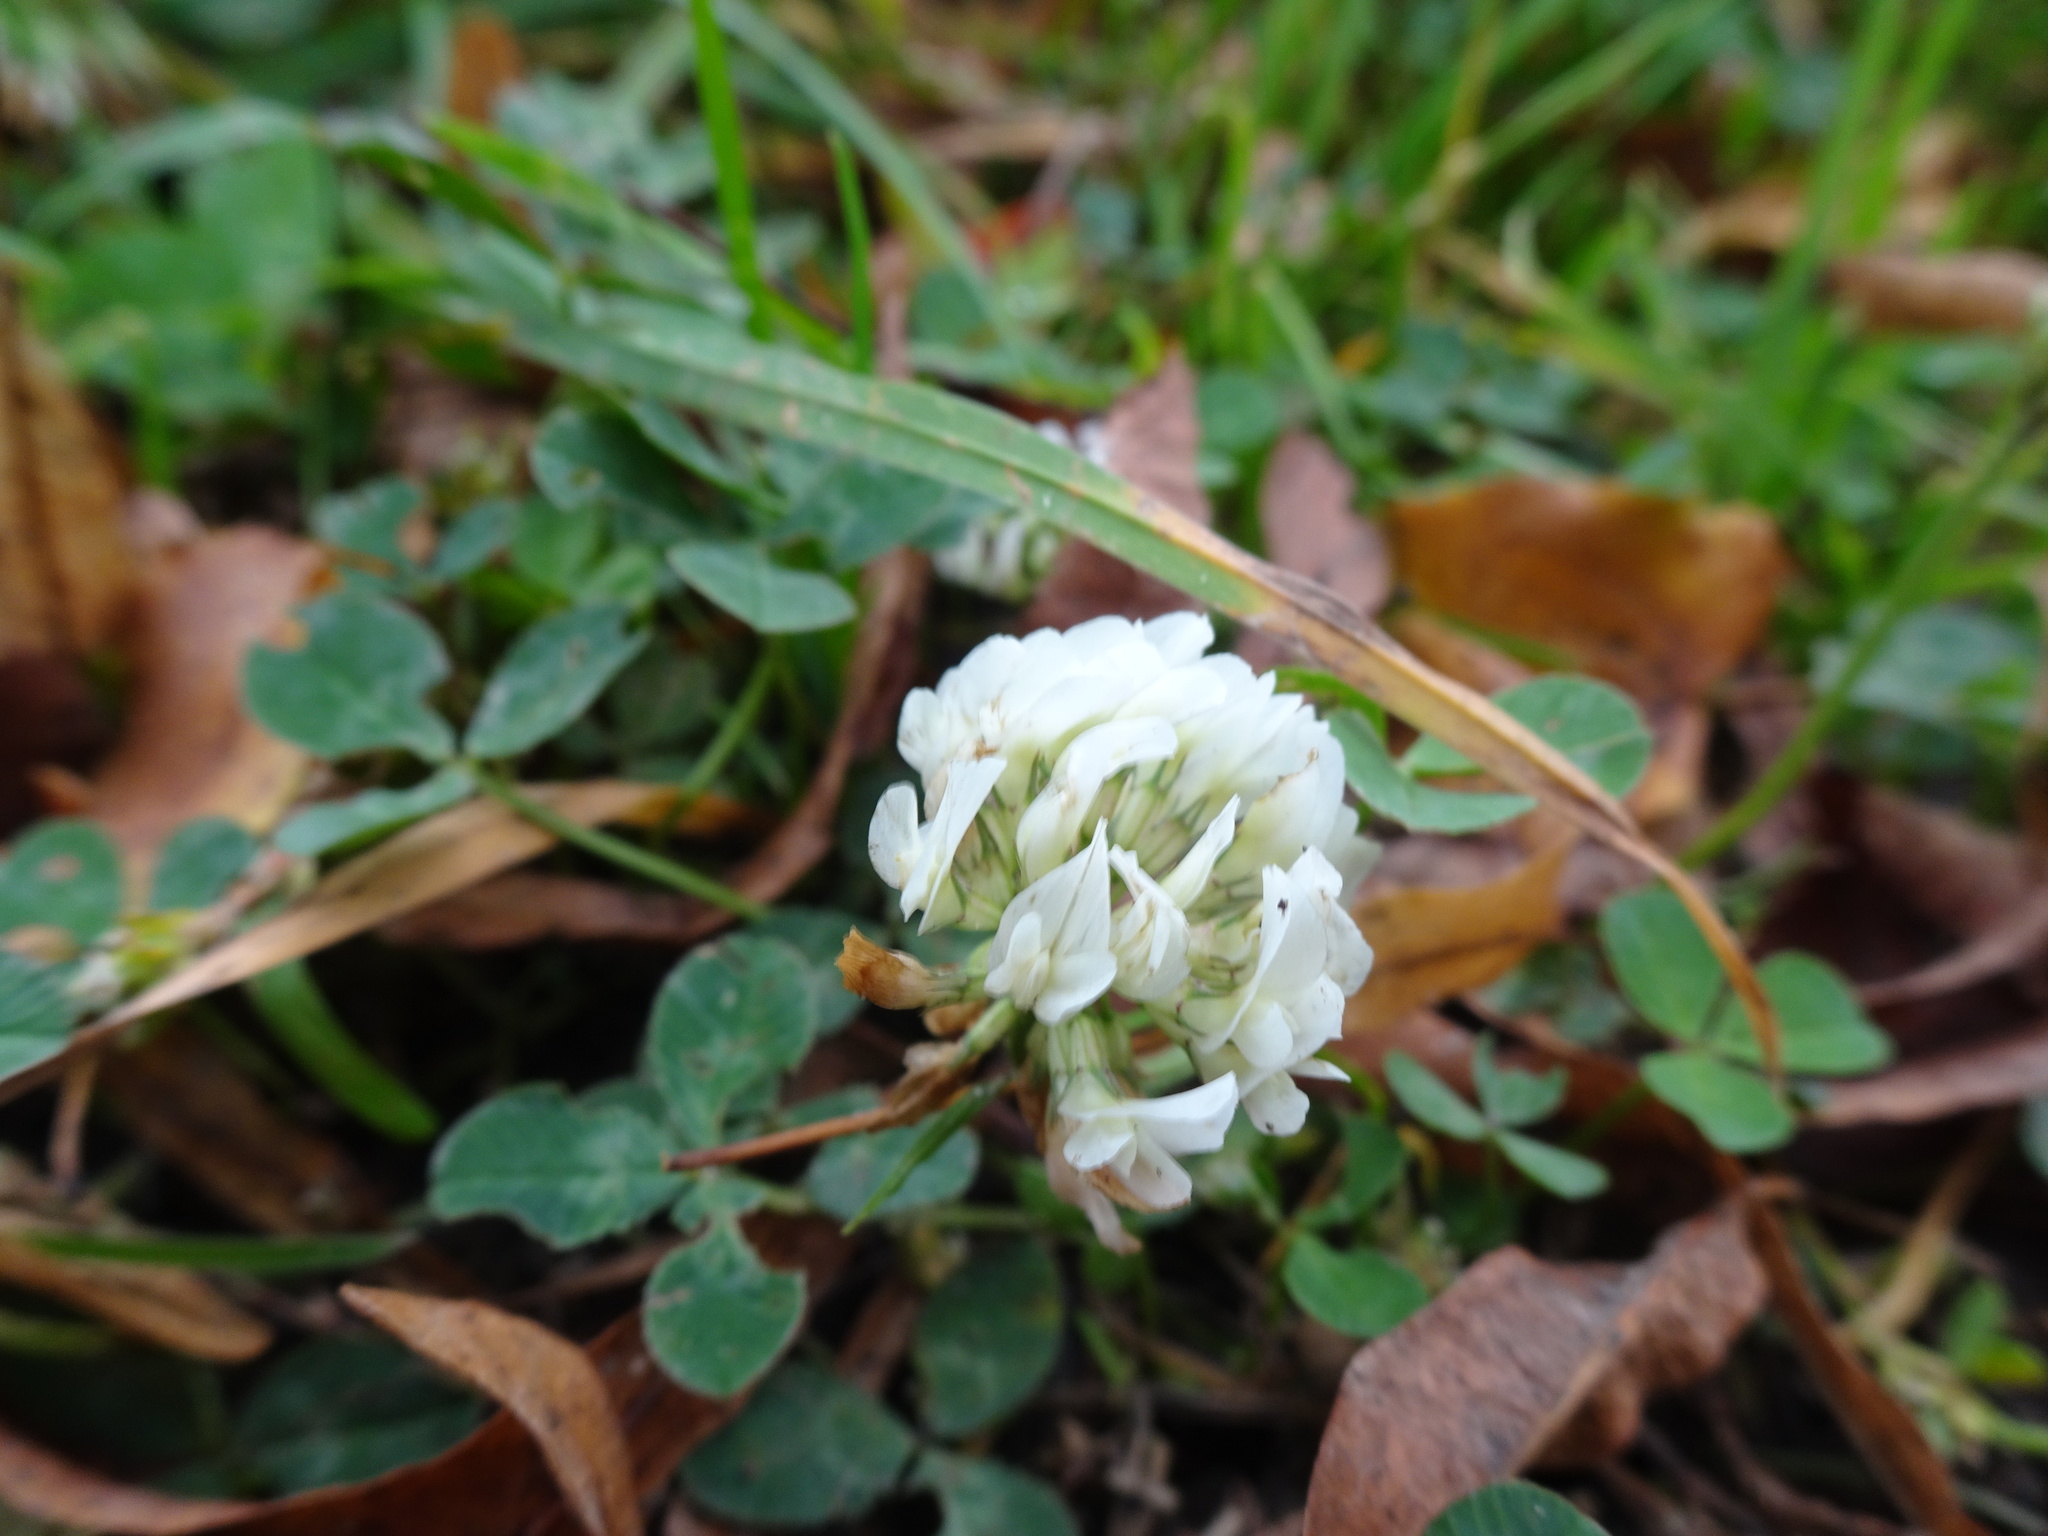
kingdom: Plantae
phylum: Tracheophyta
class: Magnoliopsida
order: Fabales
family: Fabaceae
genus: Trifolium
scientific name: Trifolium repens
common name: White clover
